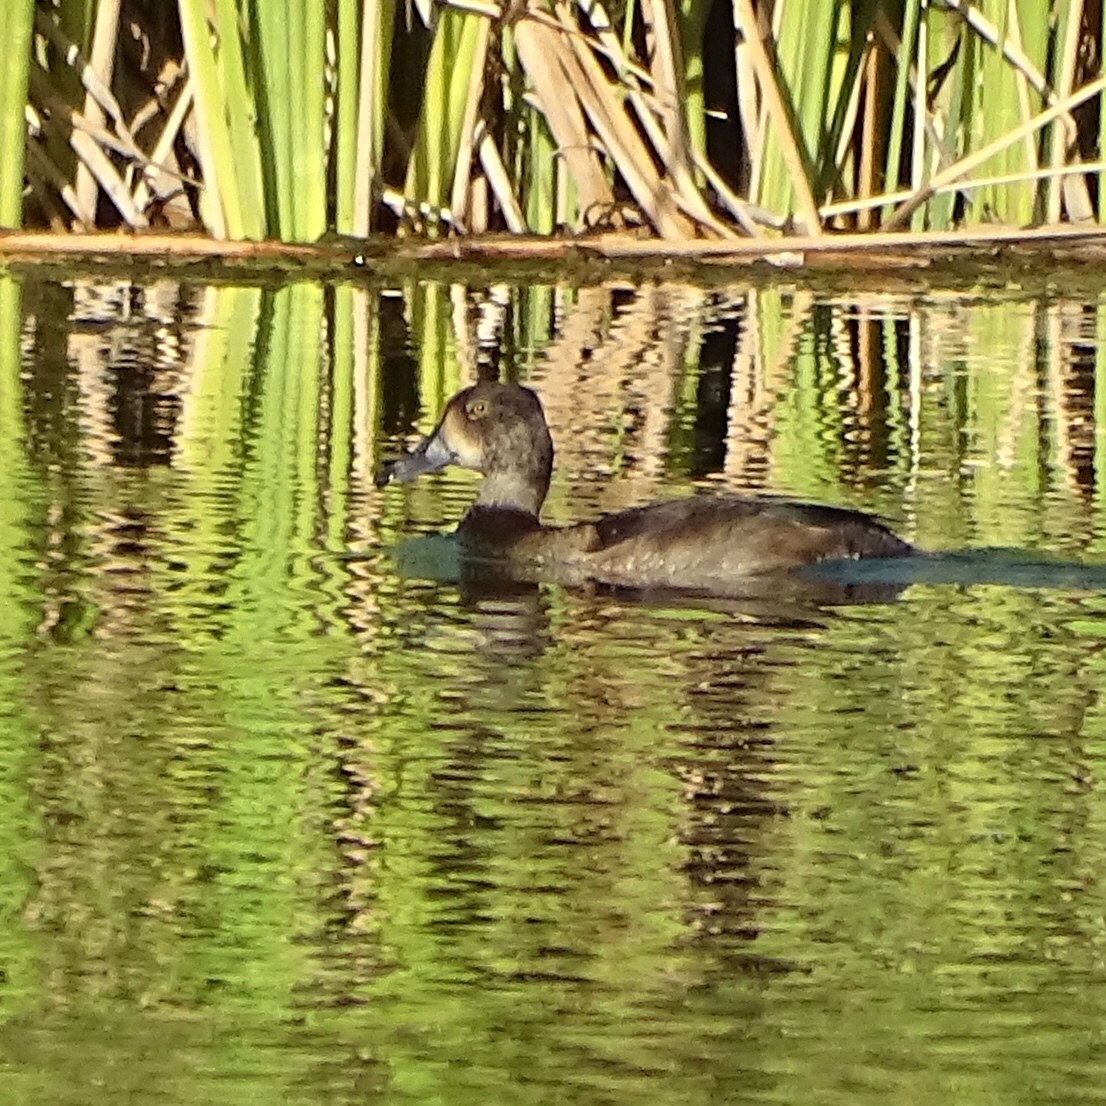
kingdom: Animalia
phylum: Chordata
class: Aves
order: Anseriformes
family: Anatidae
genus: Aythya
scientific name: Aythya collaris
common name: Ring-necked duck
